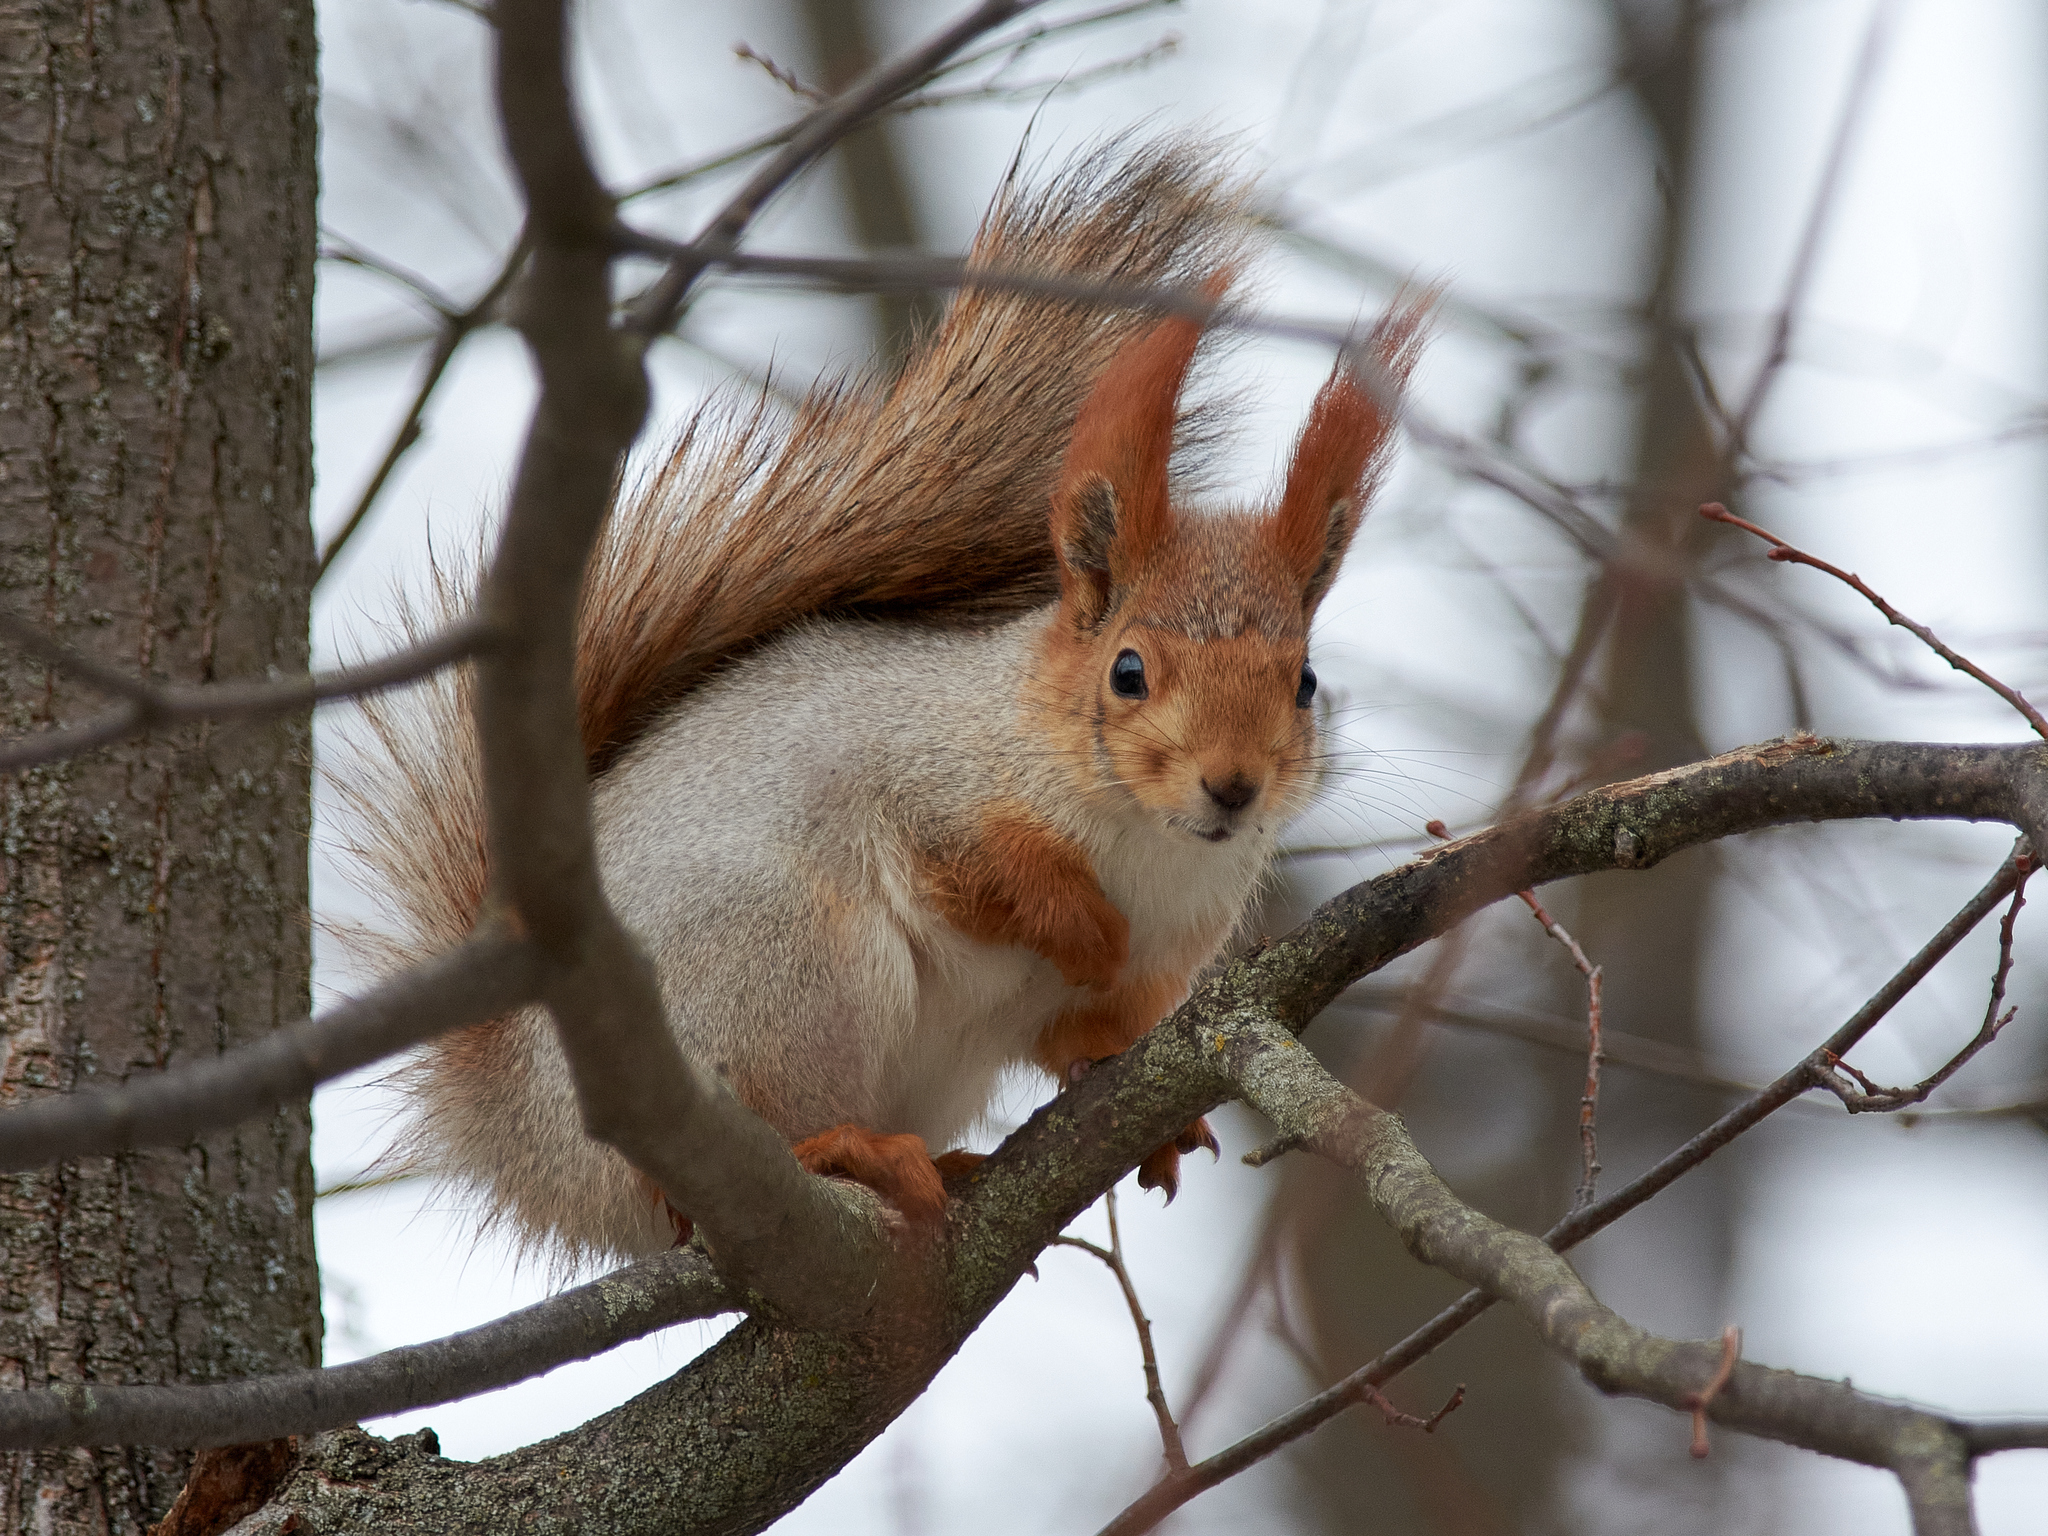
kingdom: Animalia
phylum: Chordata
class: Mammalia
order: Rodentia
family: Sciuridae
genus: Sciurus
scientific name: Sciurus vulgaris
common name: Eurasian red squirrel
